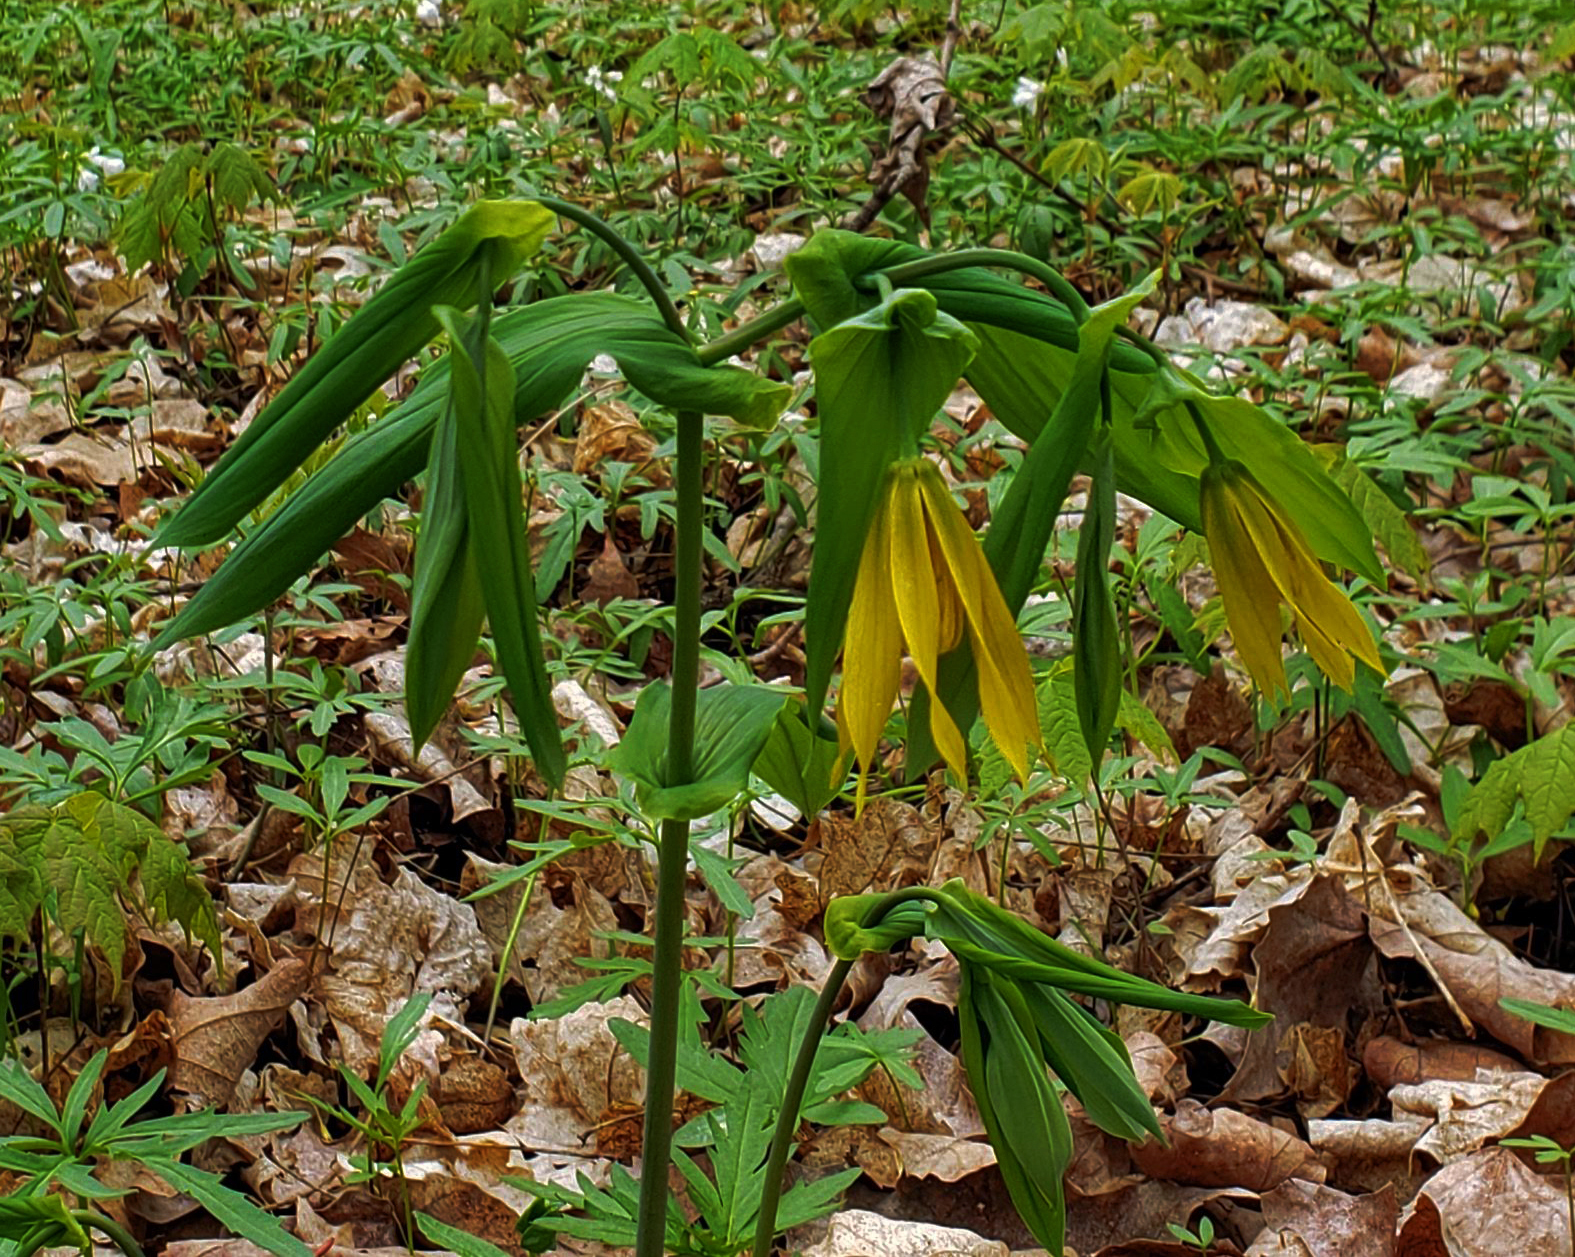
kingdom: Plantae
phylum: Tracheophyta
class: Liliopsida
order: Liliales
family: Colchicaceae
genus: Uvularia
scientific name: Uvularia grandiflora
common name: Bellwort
